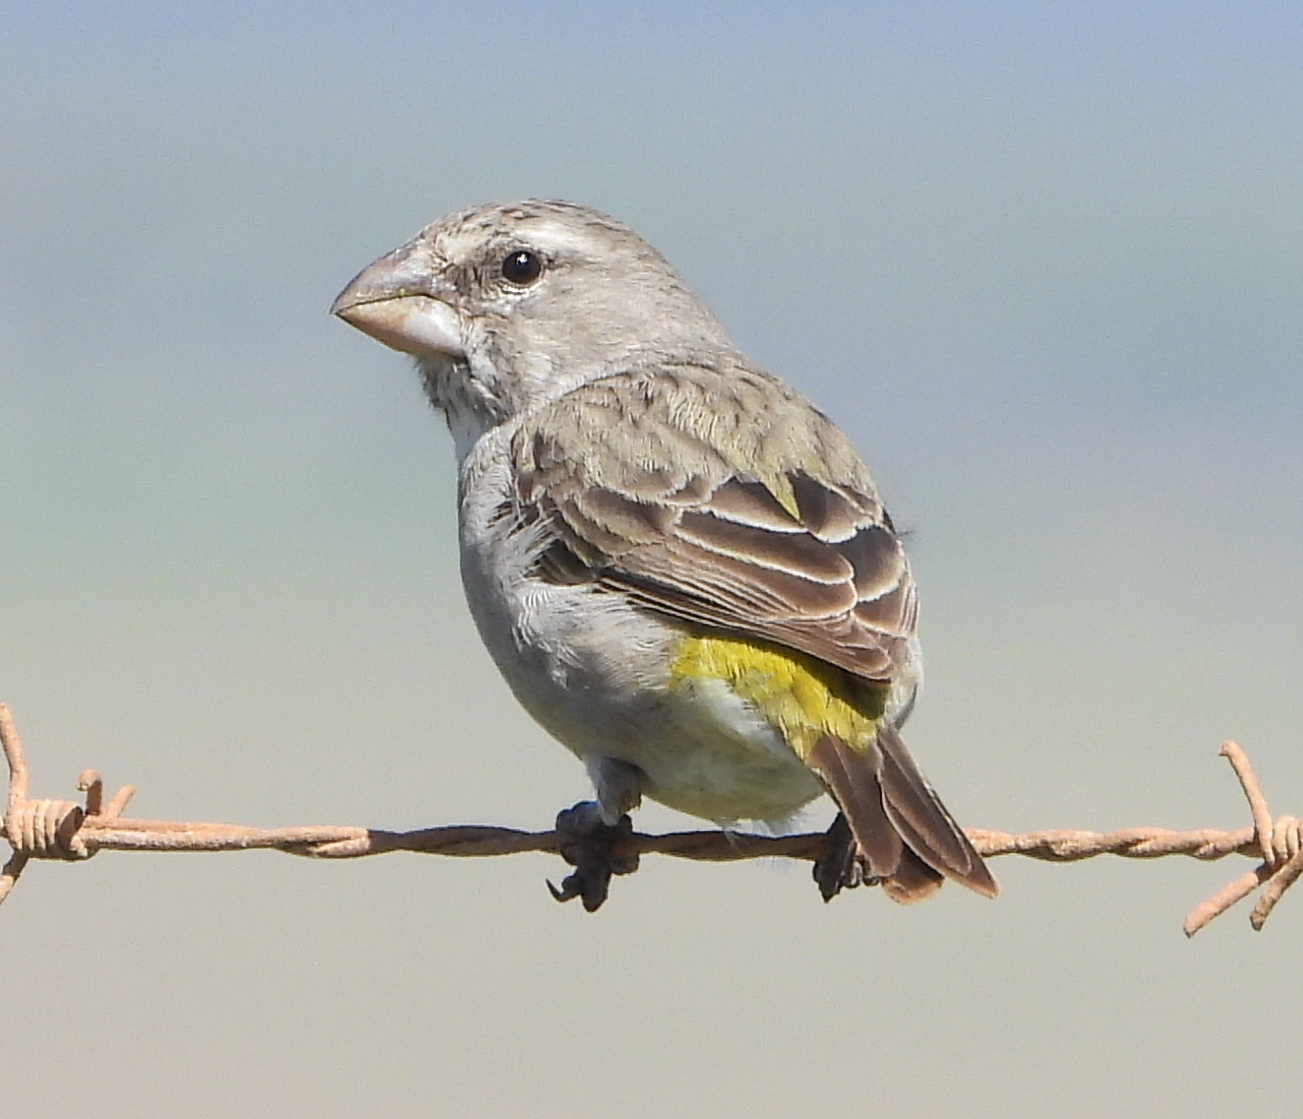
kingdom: Animalia
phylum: Chordata
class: Aves
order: Passeriformes
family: Fringillidae
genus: Crithagra
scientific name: Crithagra albogularis
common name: White-throated canary
